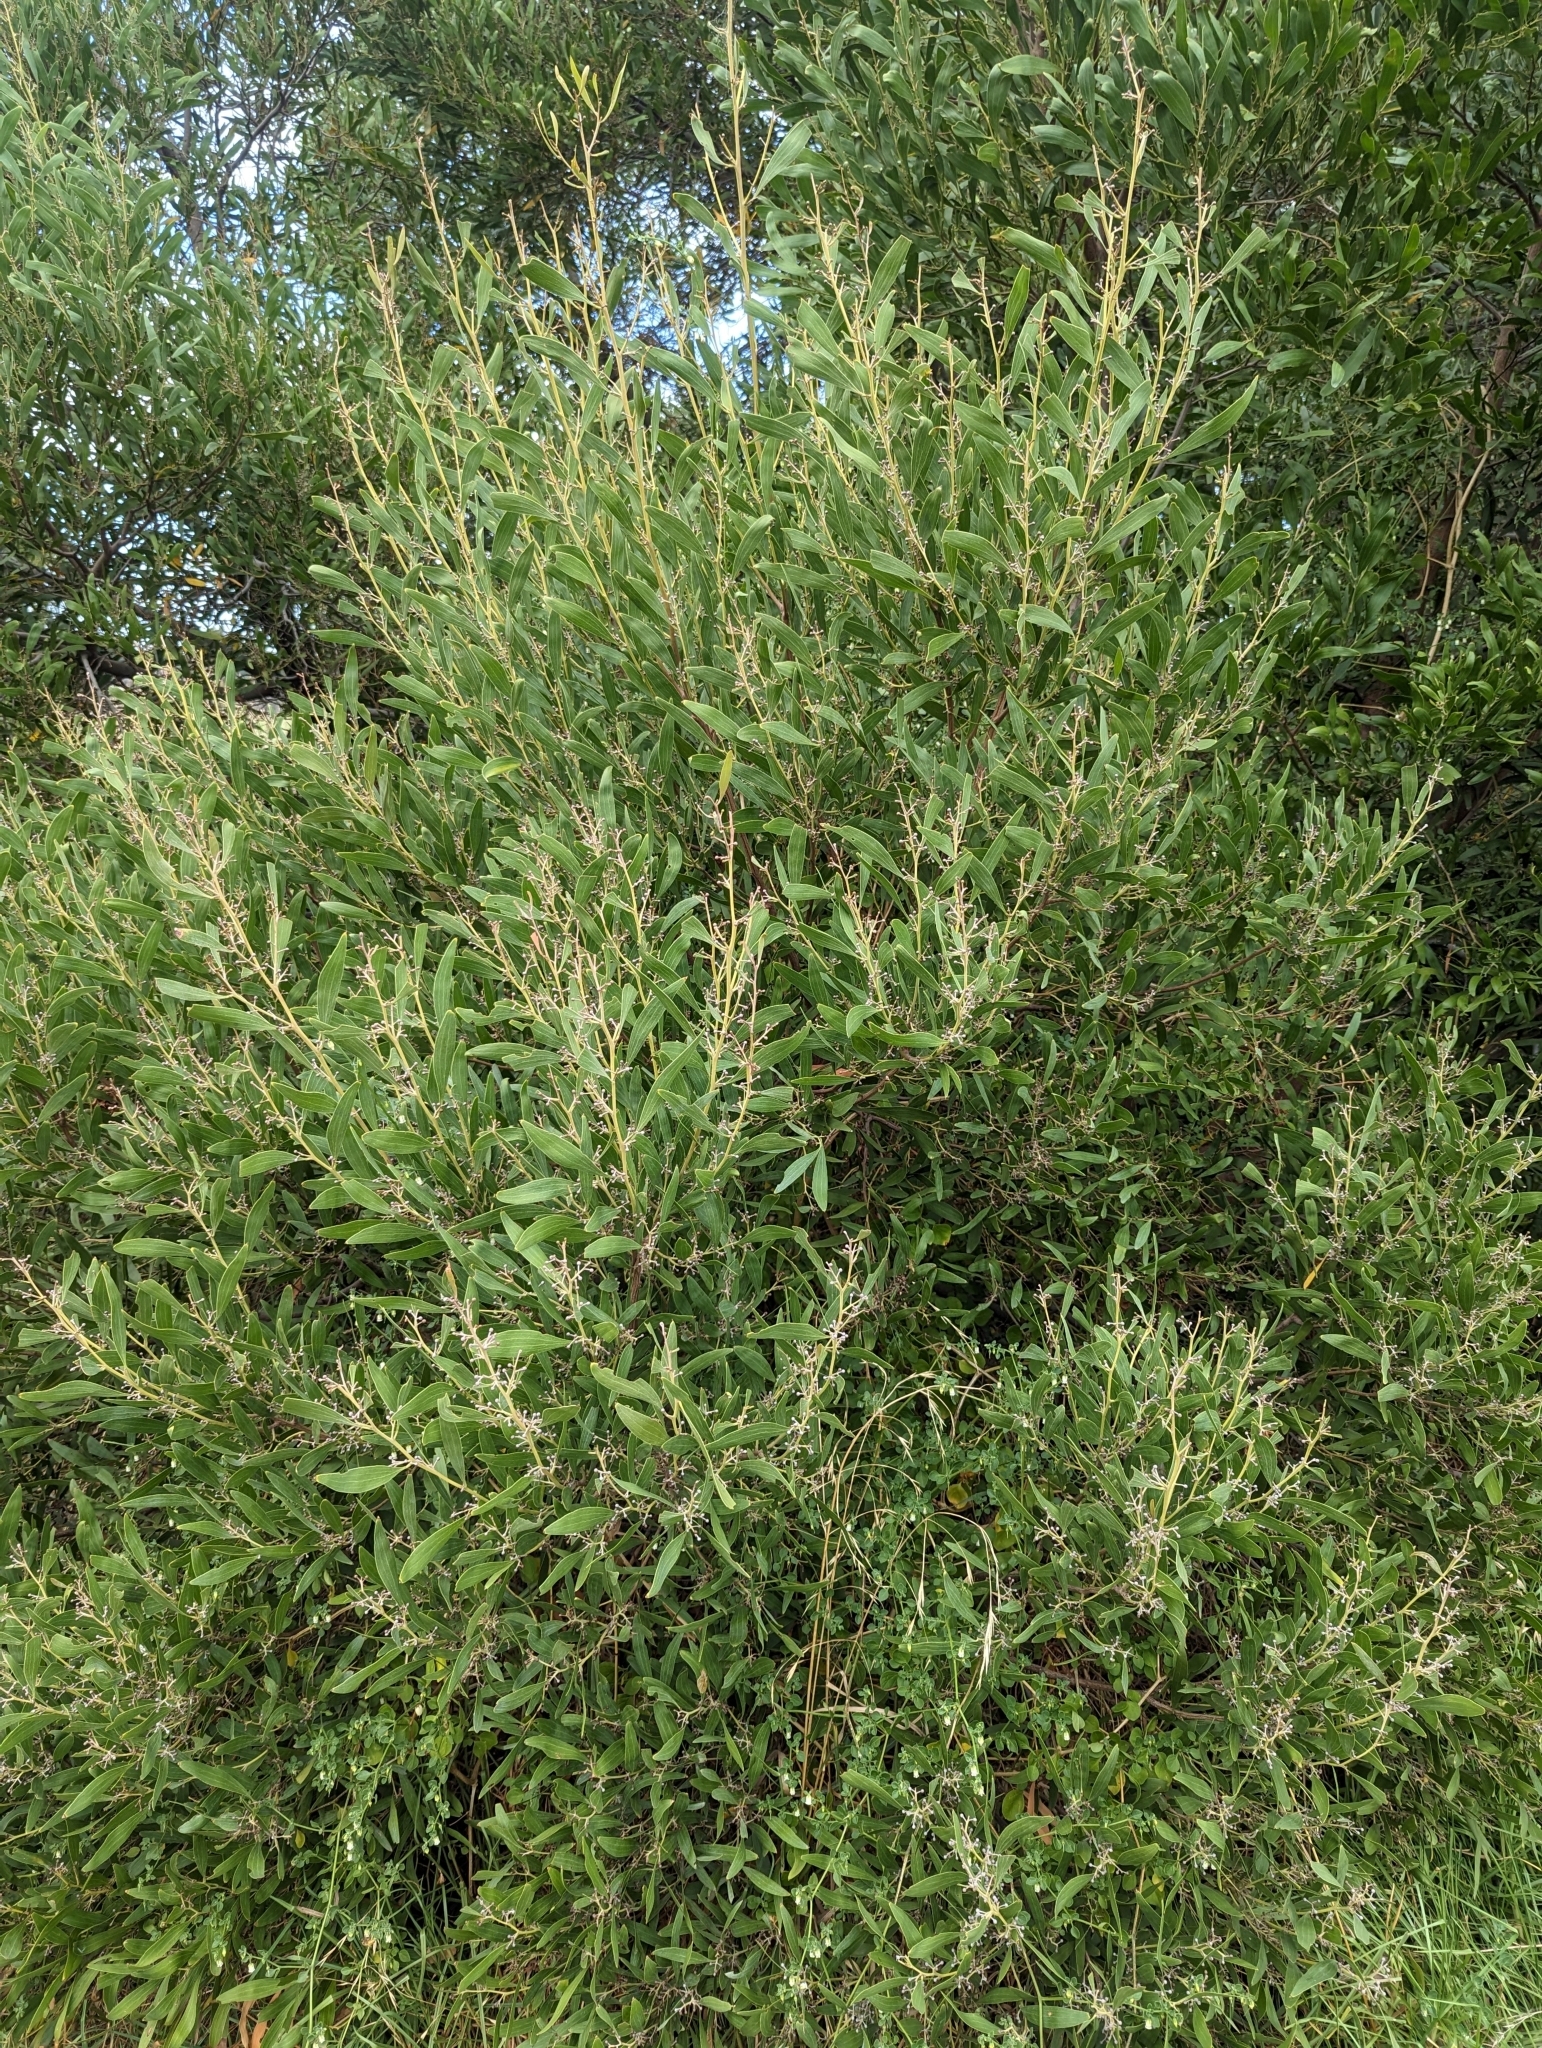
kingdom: Plantae
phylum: Tracheophyta
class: Magnoliopsida
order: Fabales
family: Fabaceae
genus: Acacia
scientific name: Acacia melanoxylon
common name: Blackwood
